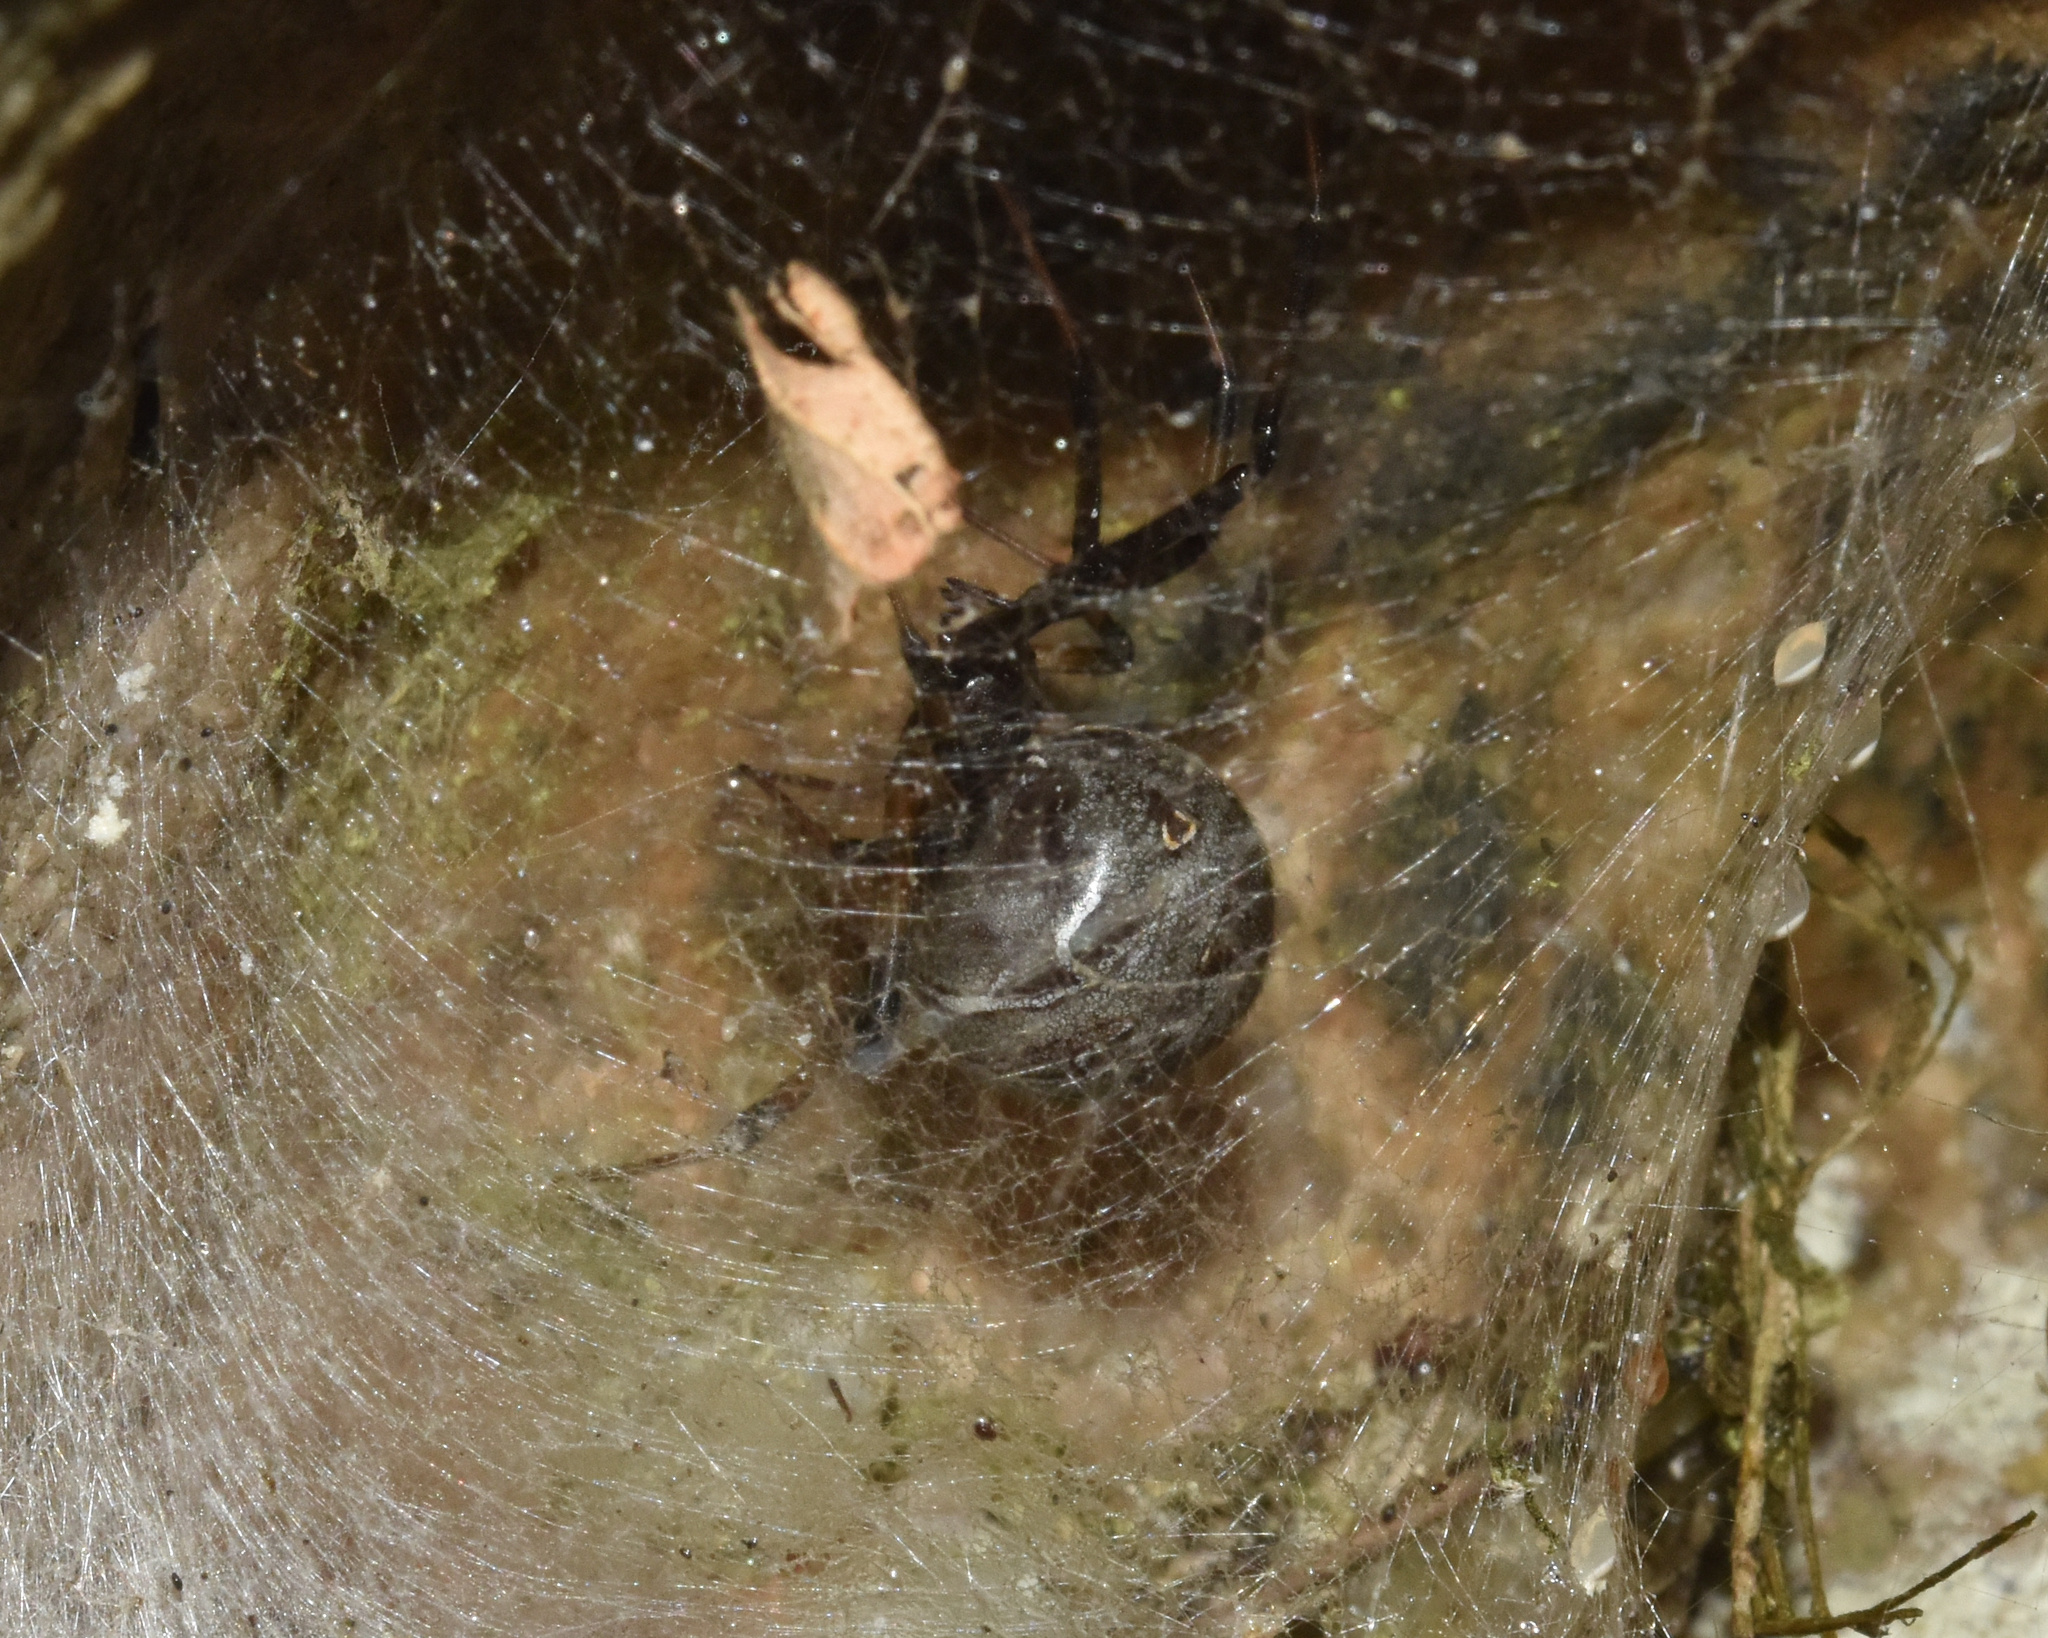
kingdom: Animalia
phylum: Arthropoda
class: Arachnida
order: Araneae
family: Theridiidae
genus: Latrodectus
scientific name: Latrodectus geometricus
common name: Brown widow spider
